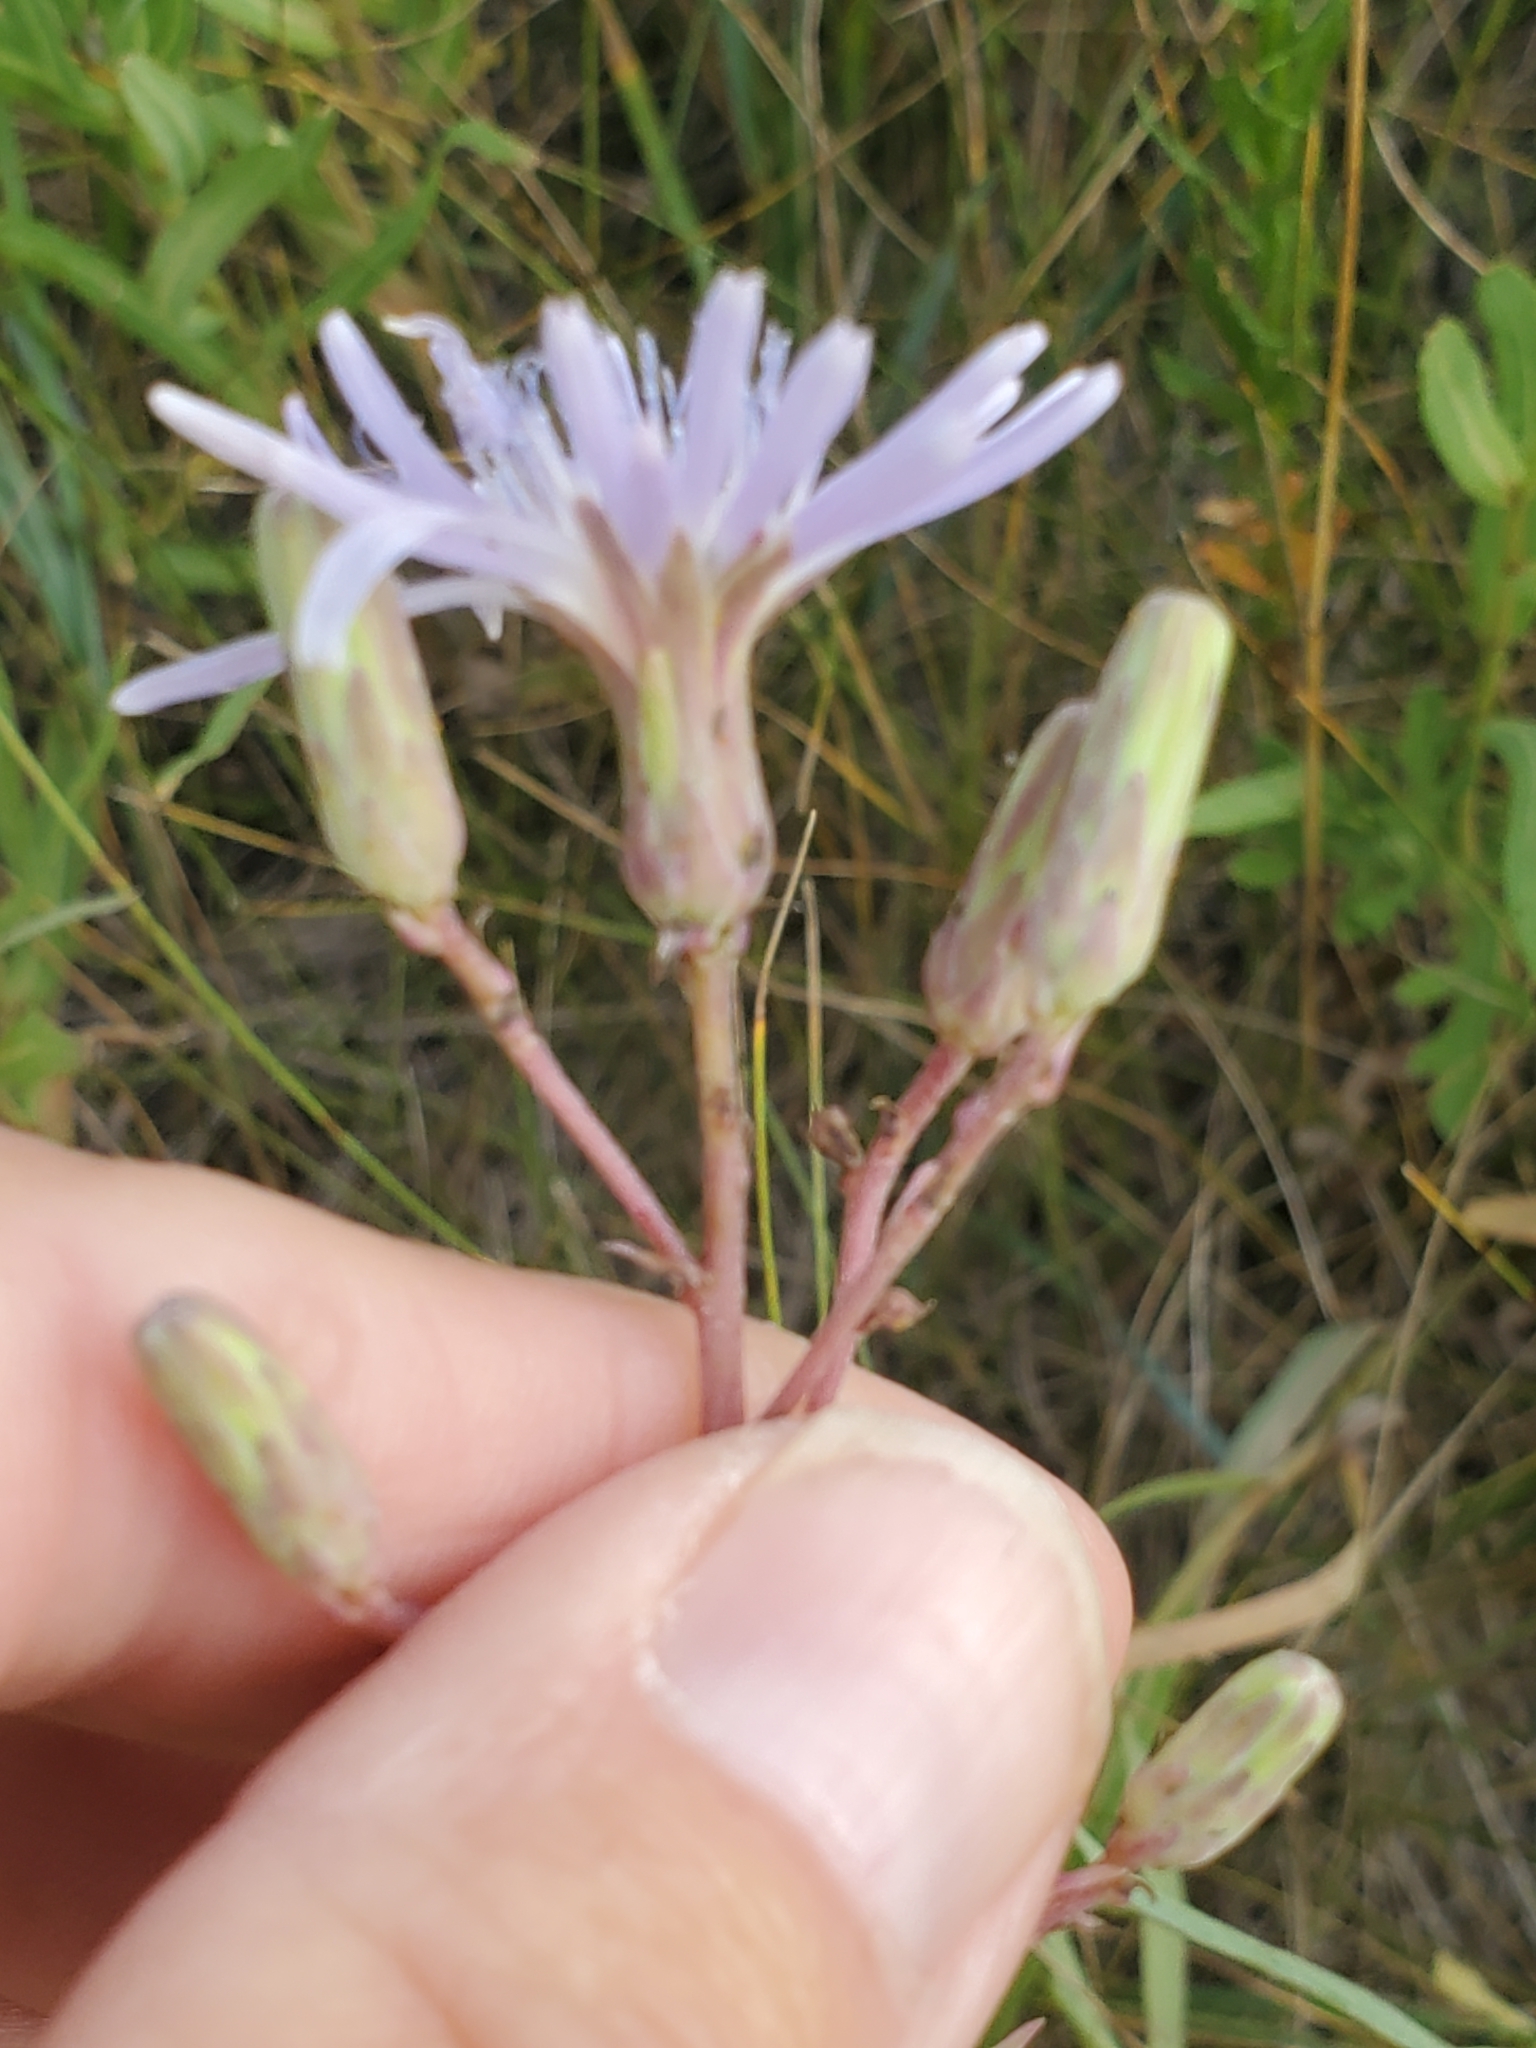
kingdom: Plantae
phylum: Tracheophyta
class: Magnoliopsida
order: Asterales
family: Asteraceae
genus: Lactuca
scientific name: Lactuca tatarica
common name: Blue lettuce
